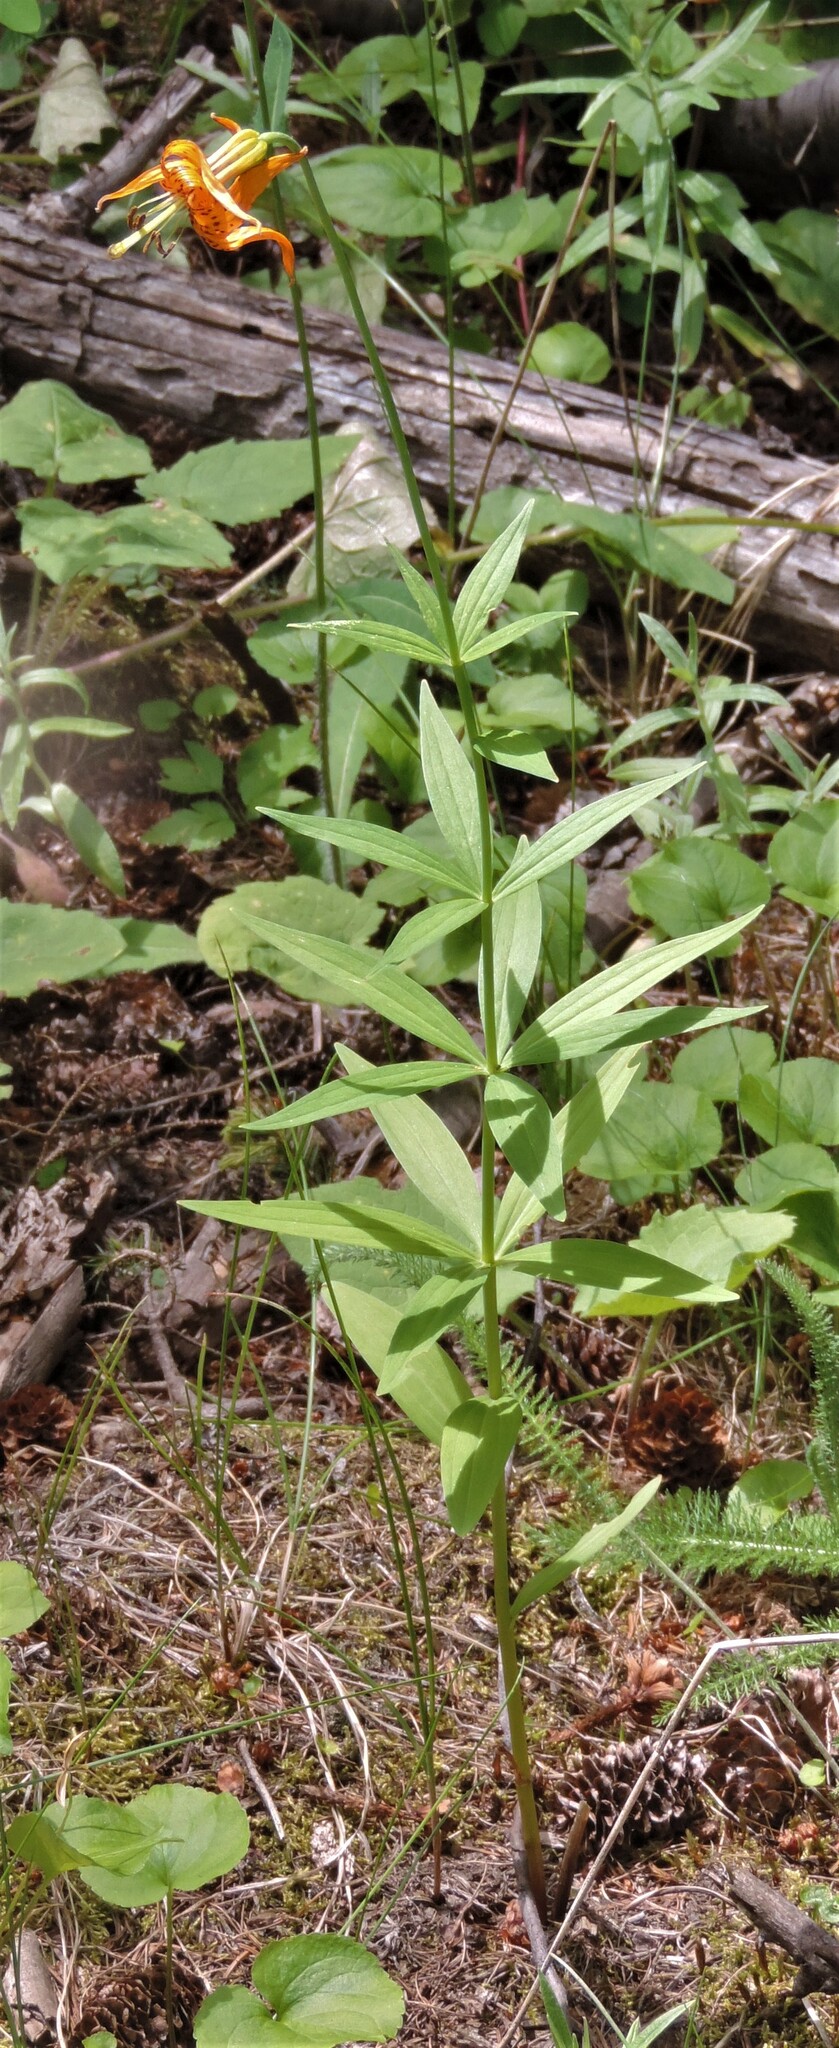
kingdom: Plantae
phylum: Tracheophyta
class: Liliopsida
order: Liliales
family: Liliaceae
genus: Lilium
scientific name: Lilium columbianum
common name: Columbia lily
